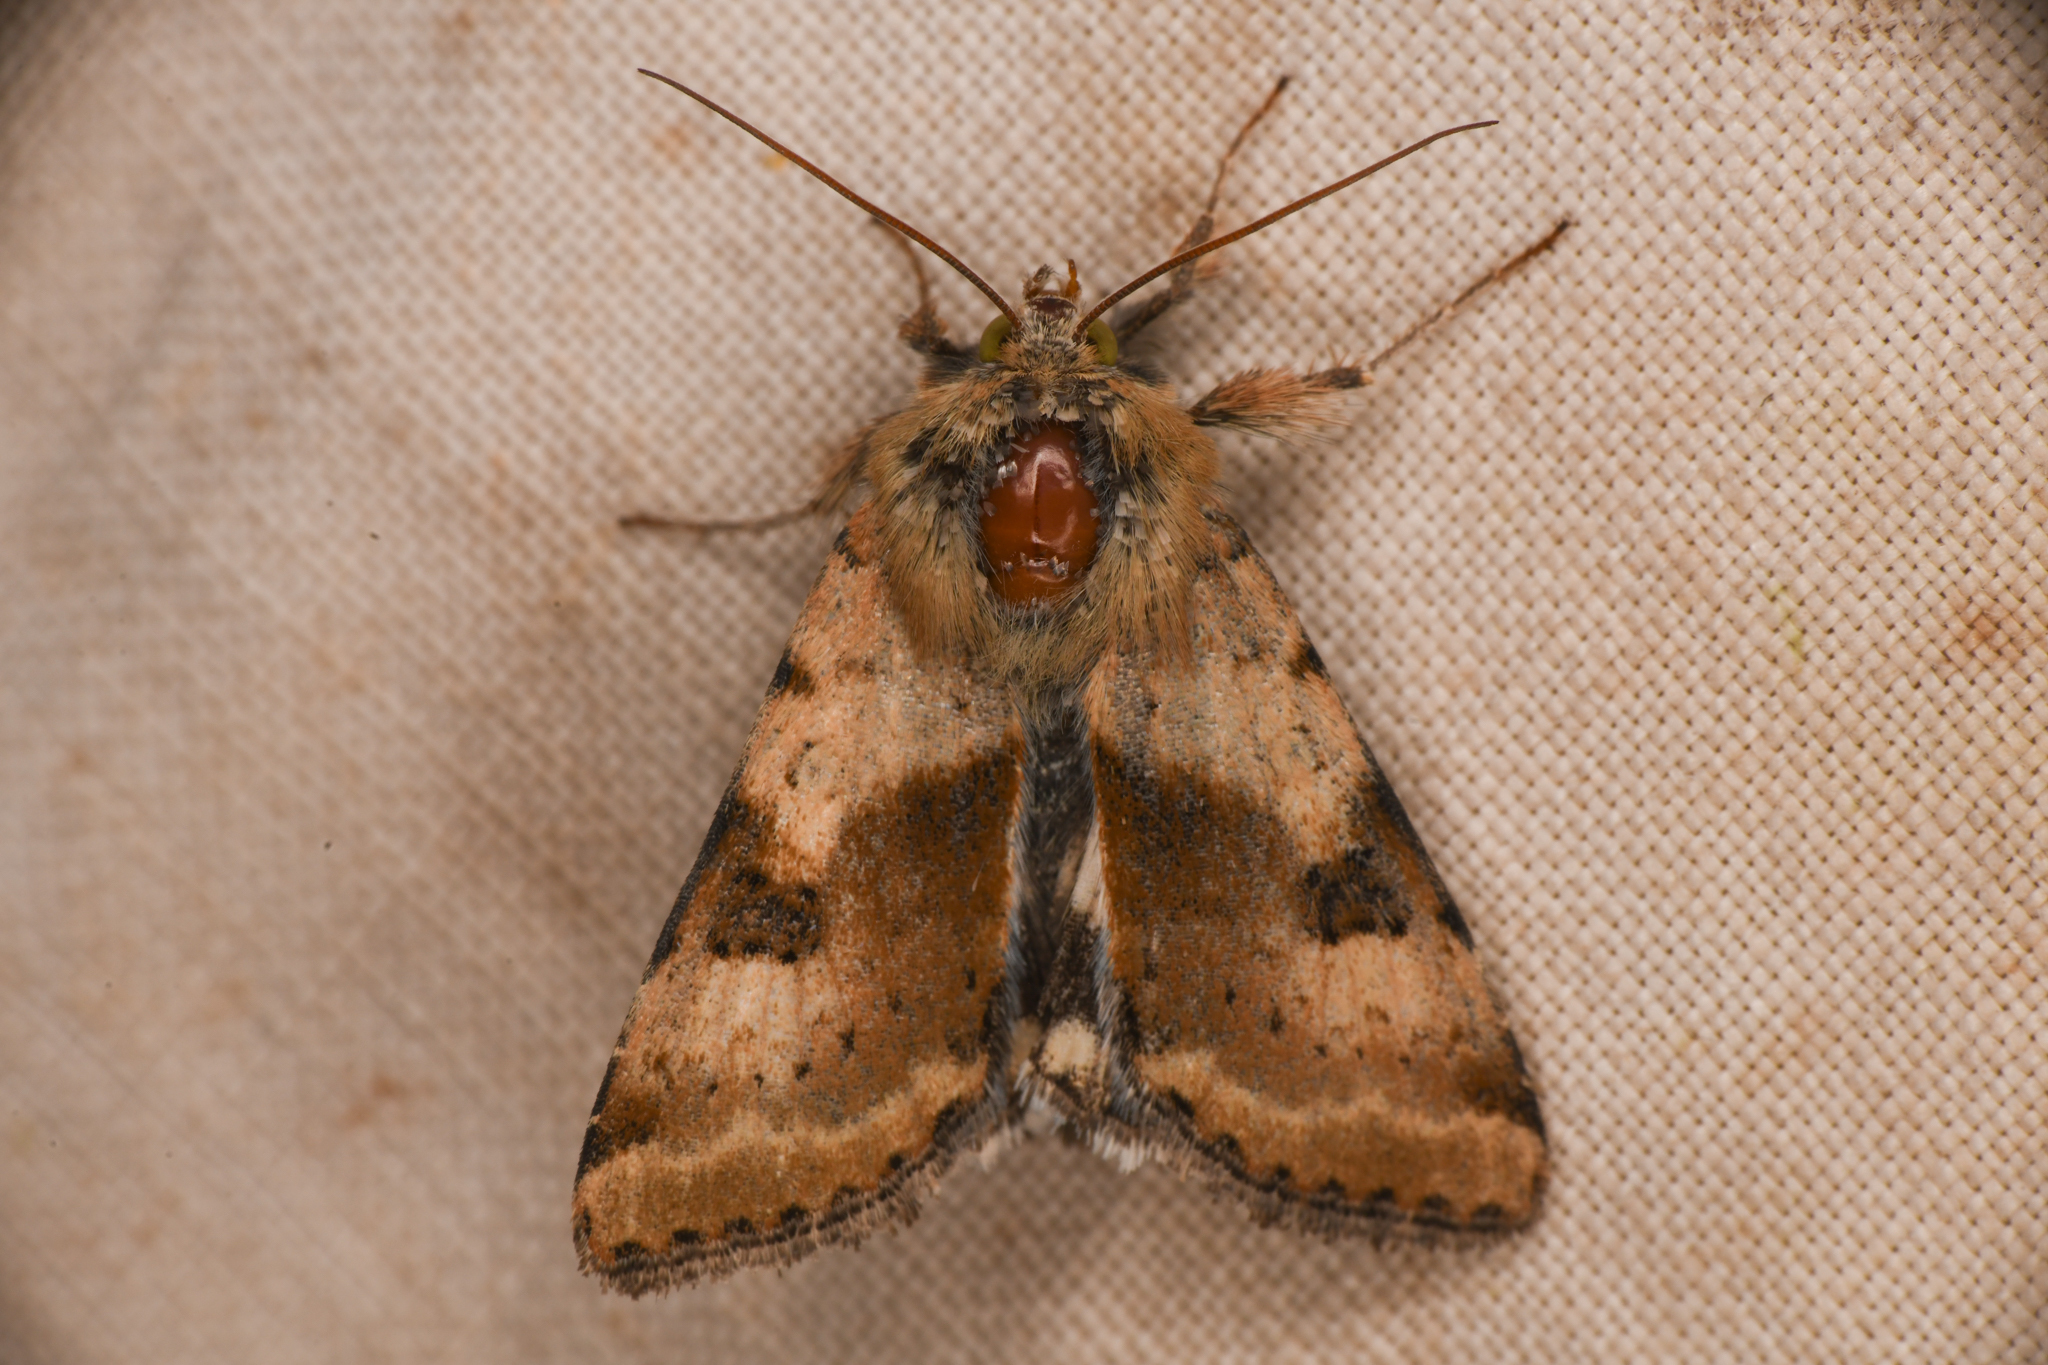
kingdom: Animalia
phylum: Arthropoda
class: Insecta
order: Lepidoptera
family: Noctuidae
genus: Heliothis
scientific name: Heliothis phloxiphaga
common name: Darker spotted straw moth
